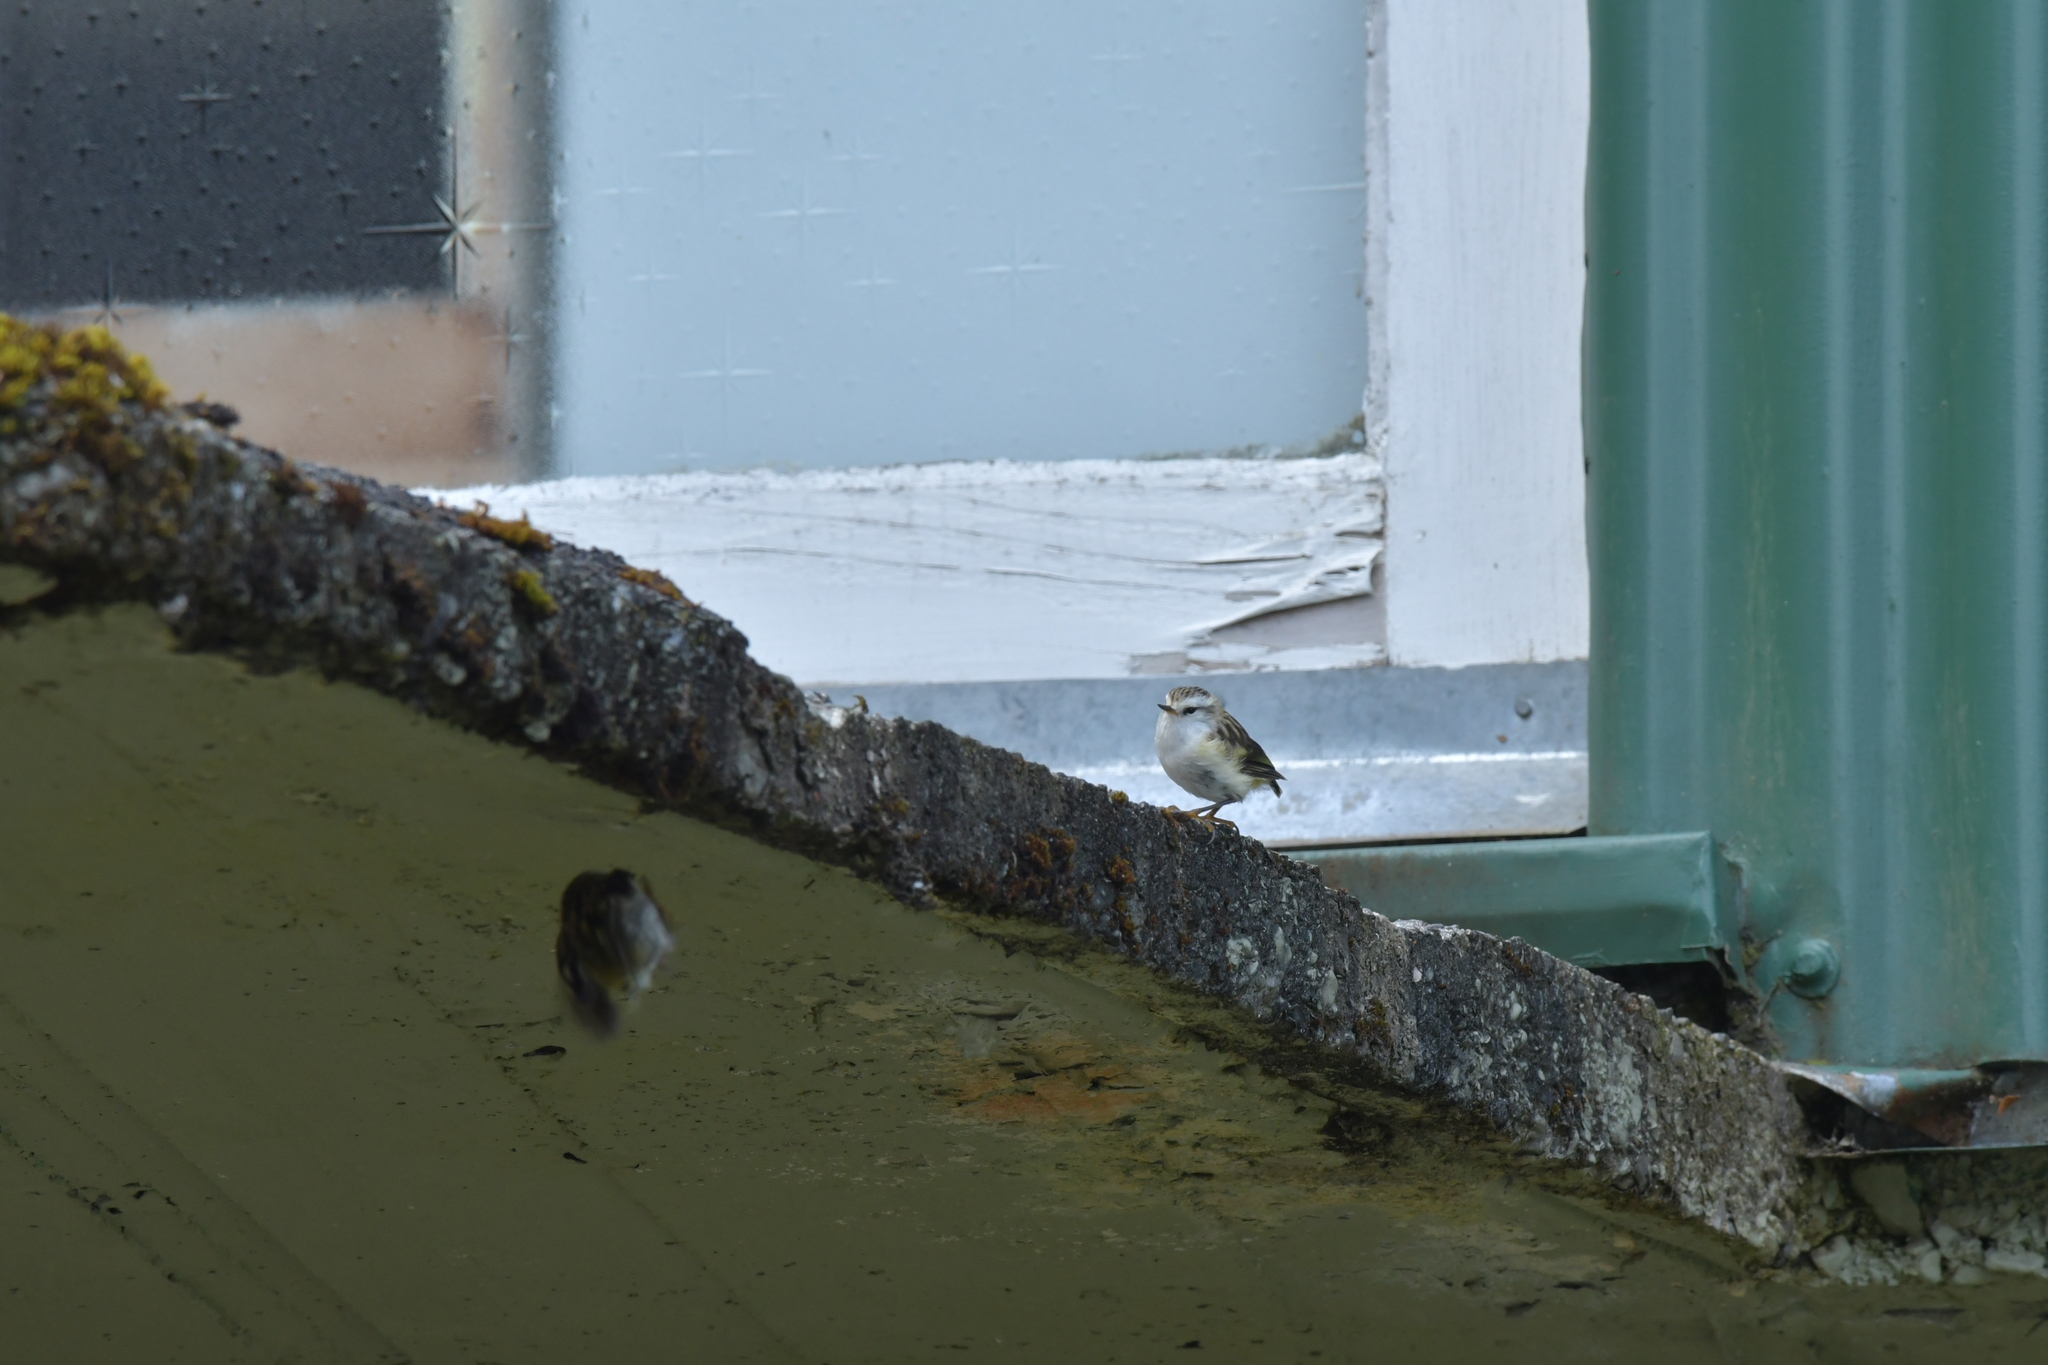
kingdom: Animalia
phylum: Chordata
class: Aves
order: Passeriformes
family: Acanthisittidae
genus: Acanthisitta
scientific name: Acanthisitta chloris
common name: Rifleman
